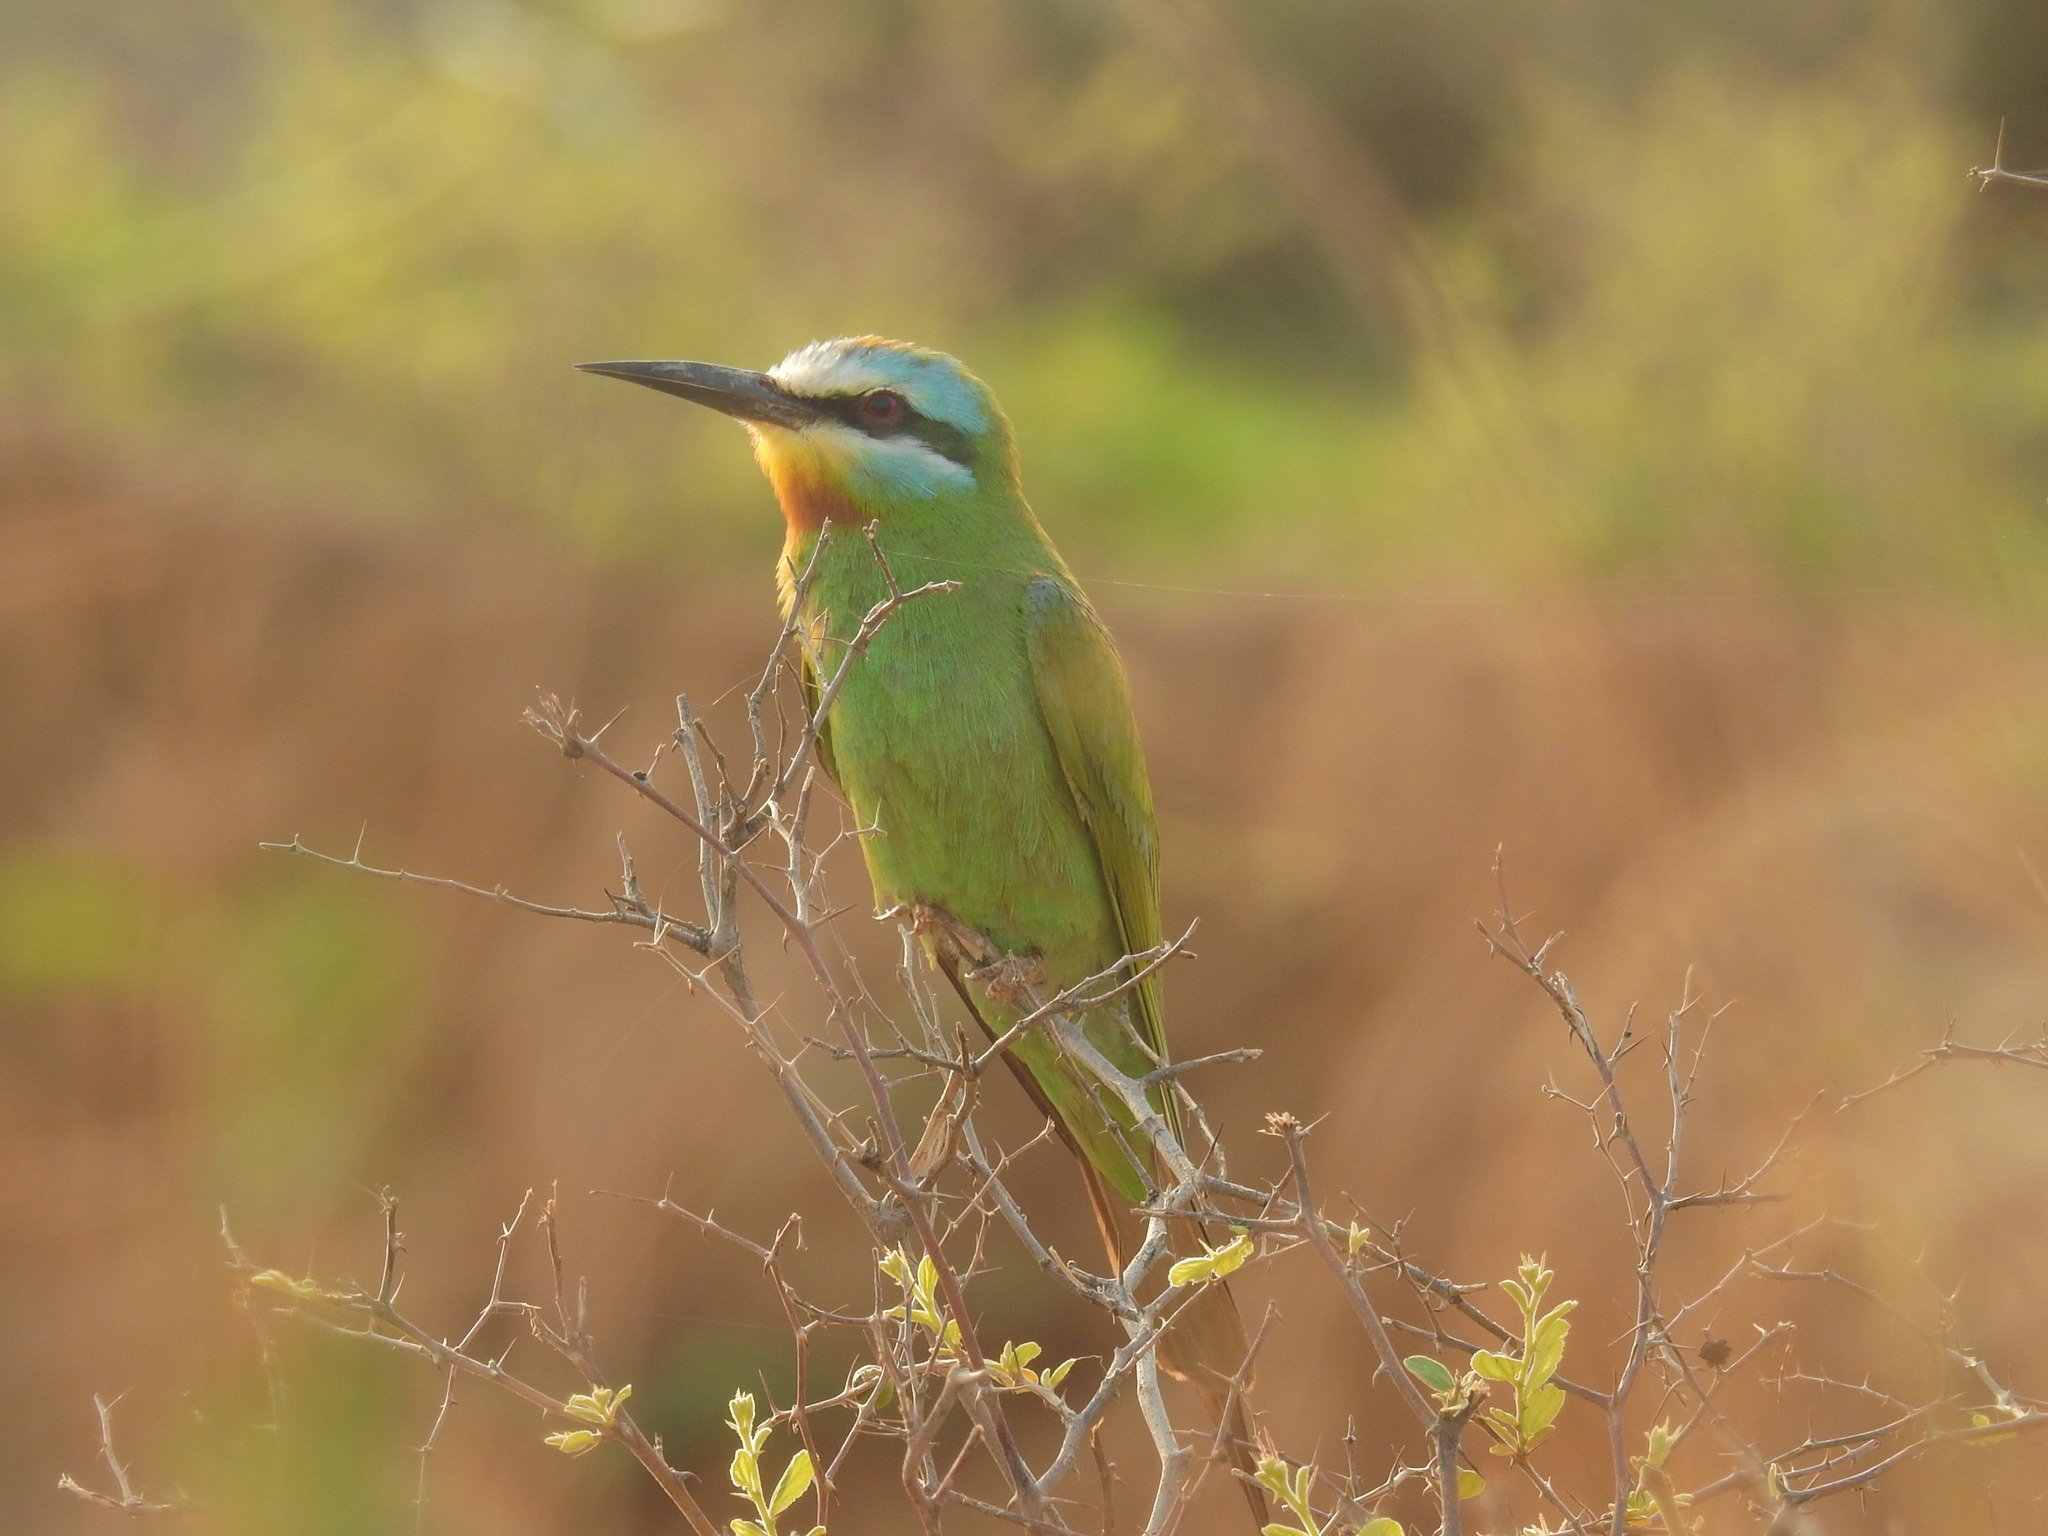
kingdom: Animalia
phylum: Chordata
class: Aves
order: Coraciiformes
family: Meropidae
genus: Merops
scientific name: Merops persicus
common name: Blue-cheeked bee-eater
